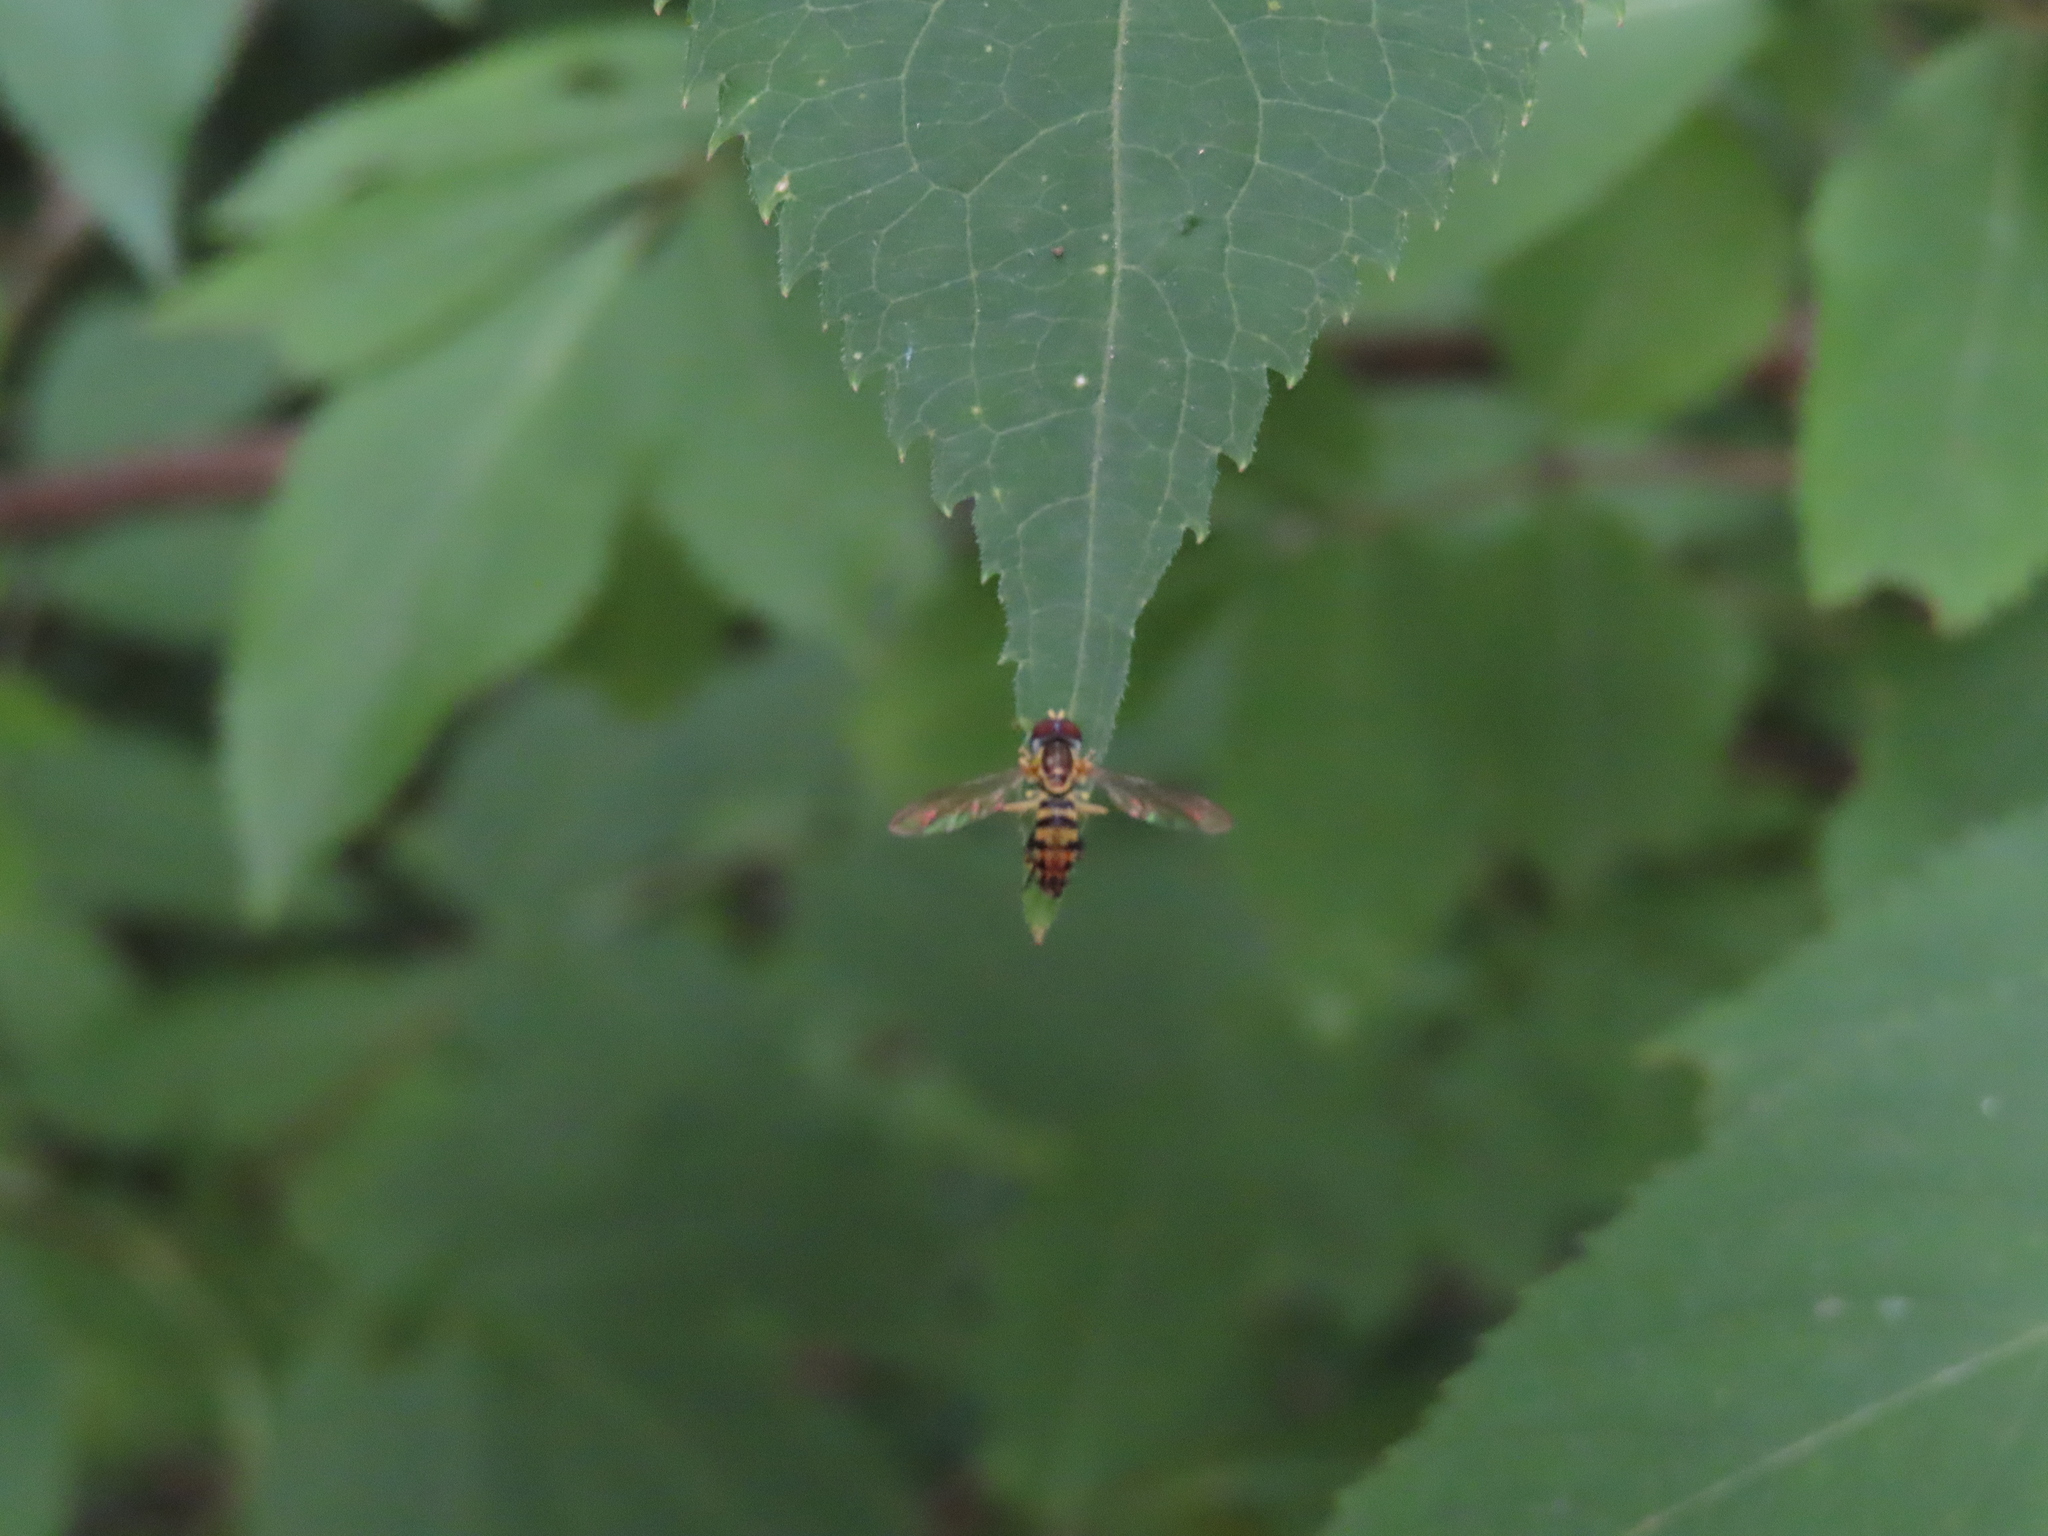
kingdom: Animalia
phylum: Arthropoda
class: Insecta
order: Diptera
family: Syrphidae
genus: Toxomerus
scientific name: Toxomerus geminatus
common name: Eastern calligrapher
